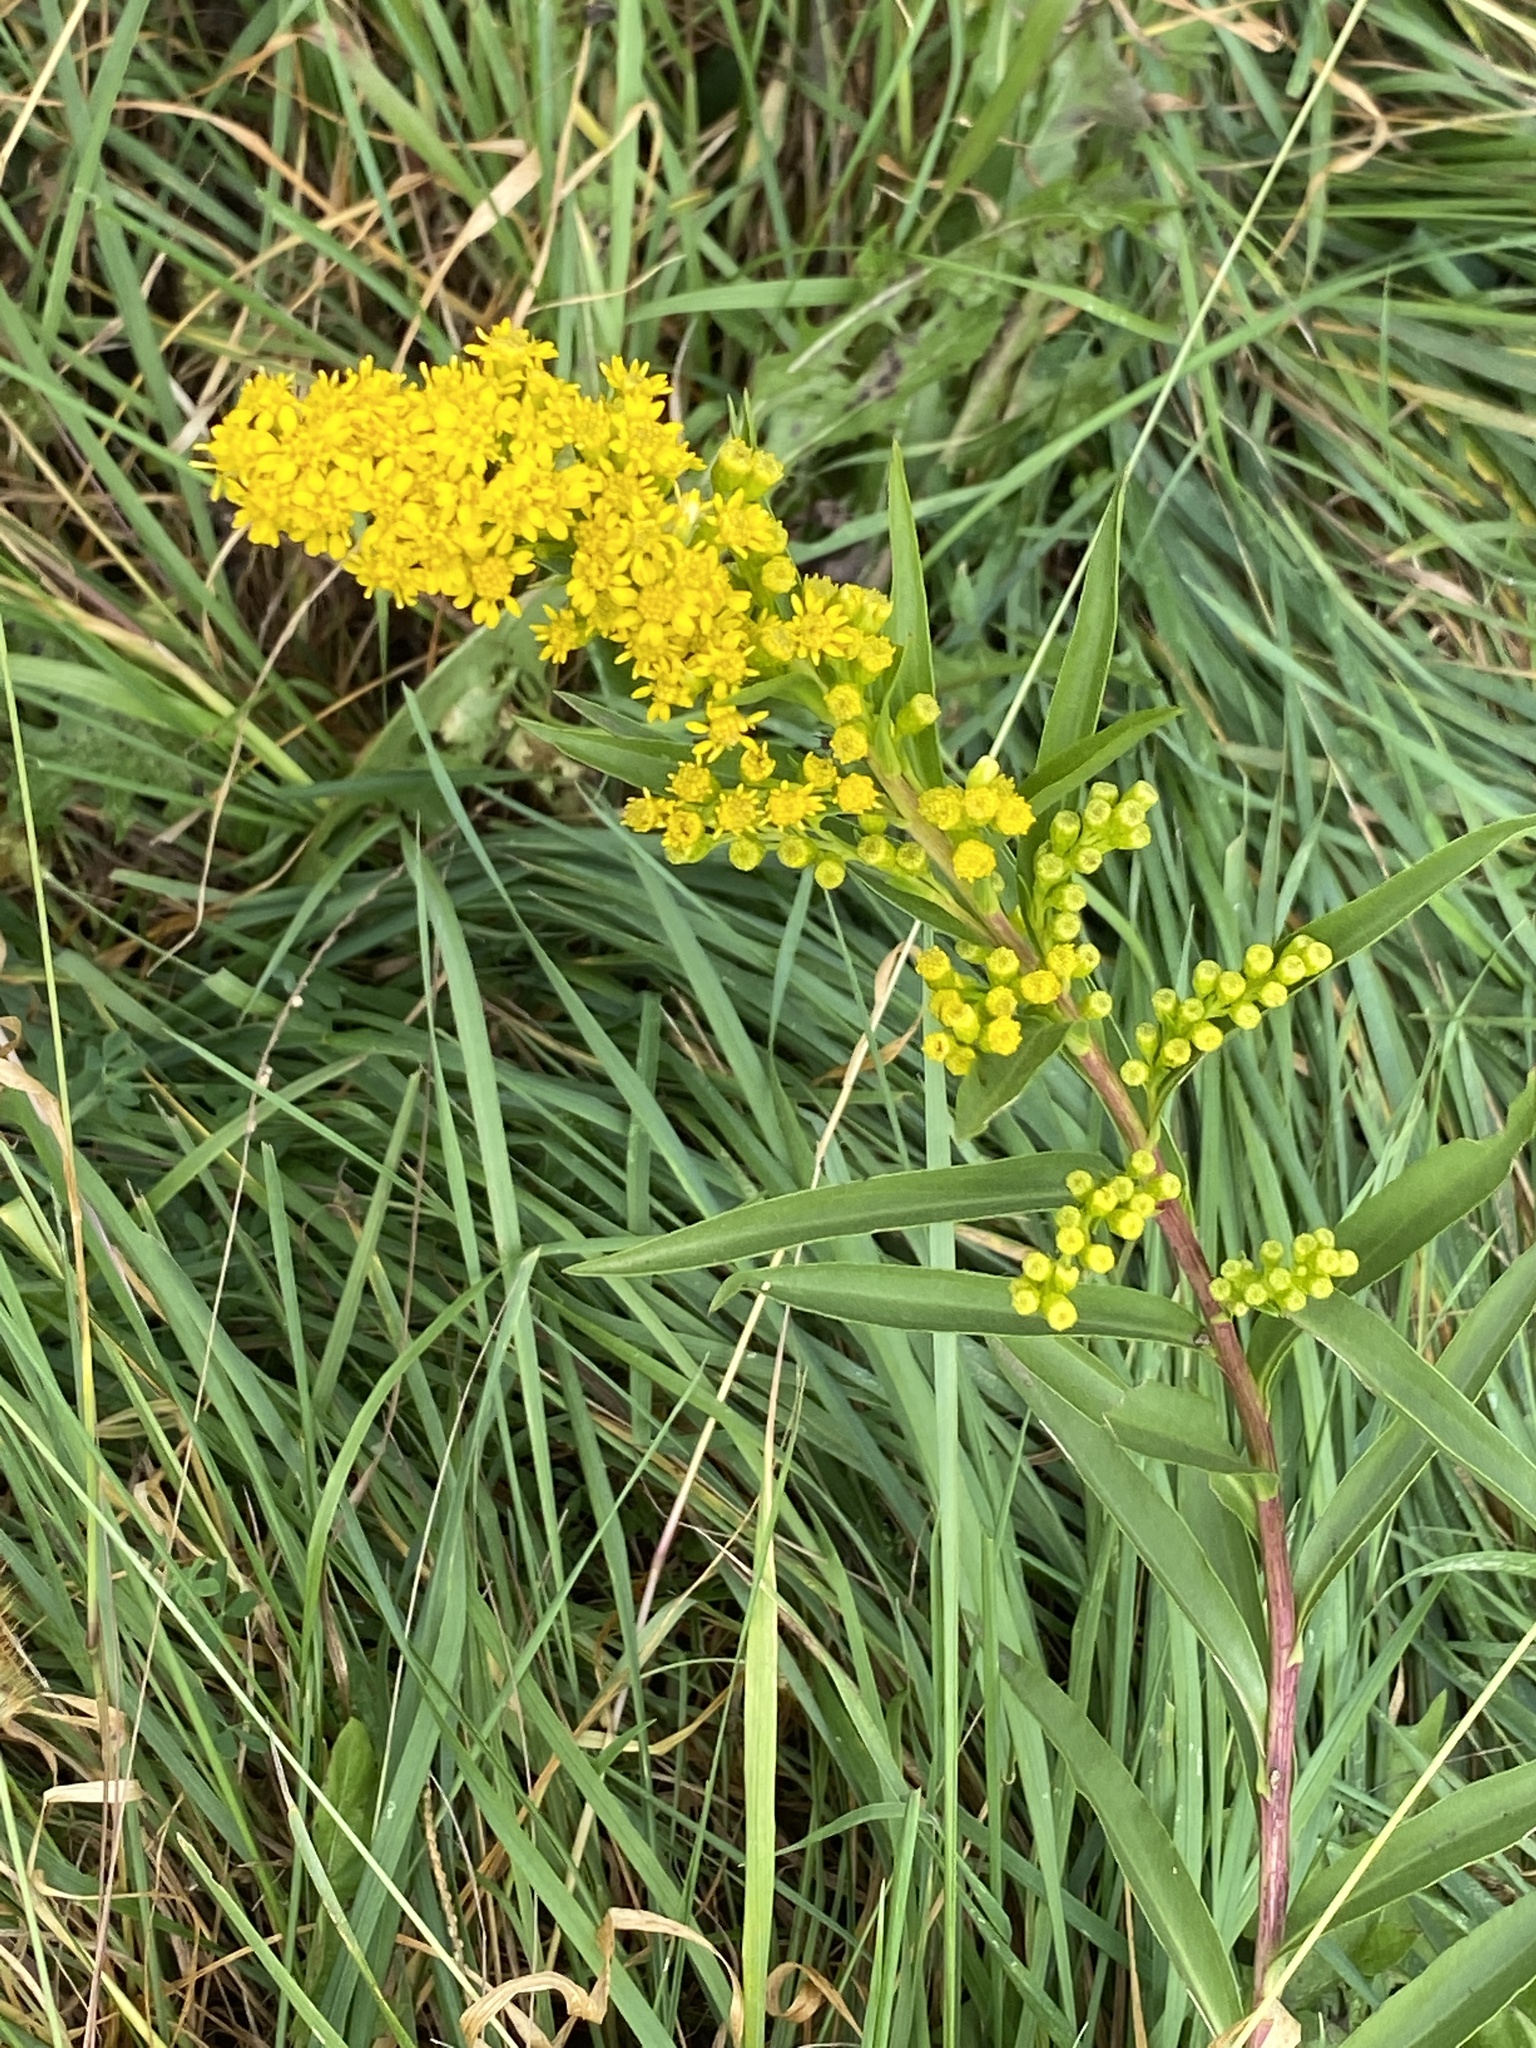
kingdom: Plantae
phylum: Tracheophyta
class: Magnoliopsida
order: Asterales
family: Asteraceae
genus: Solidago
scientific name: Solidago sempervirens
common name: Salt-marsh goldenrod
